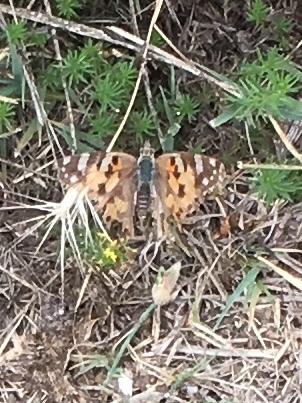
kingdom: Animalia
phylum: Arthropoda
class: Insecta
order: Lepidoptera
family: Nymphalidae
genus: Vanessa
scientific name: Vanessa cardui
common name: Painted lady
